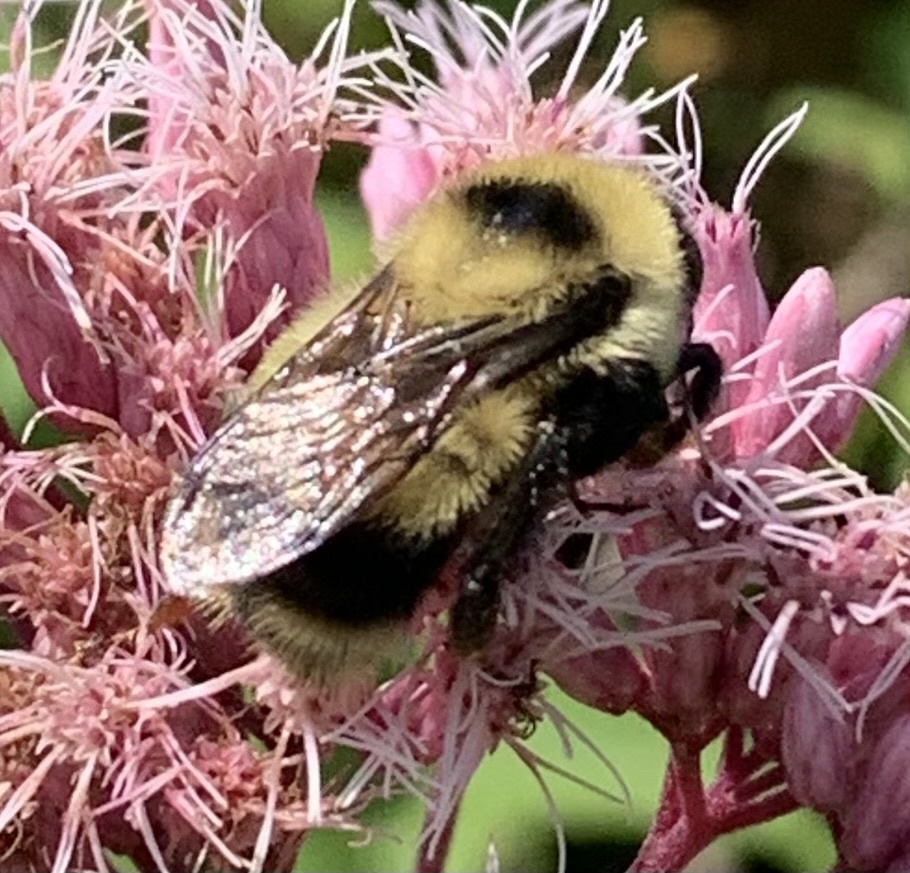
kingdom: Animalia
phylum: Arthropoda
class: Insecta
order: Hymenoptera
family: Apidae
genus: Bombus
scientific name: Bombus rufocinctus
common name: Red-belted bumble bee
